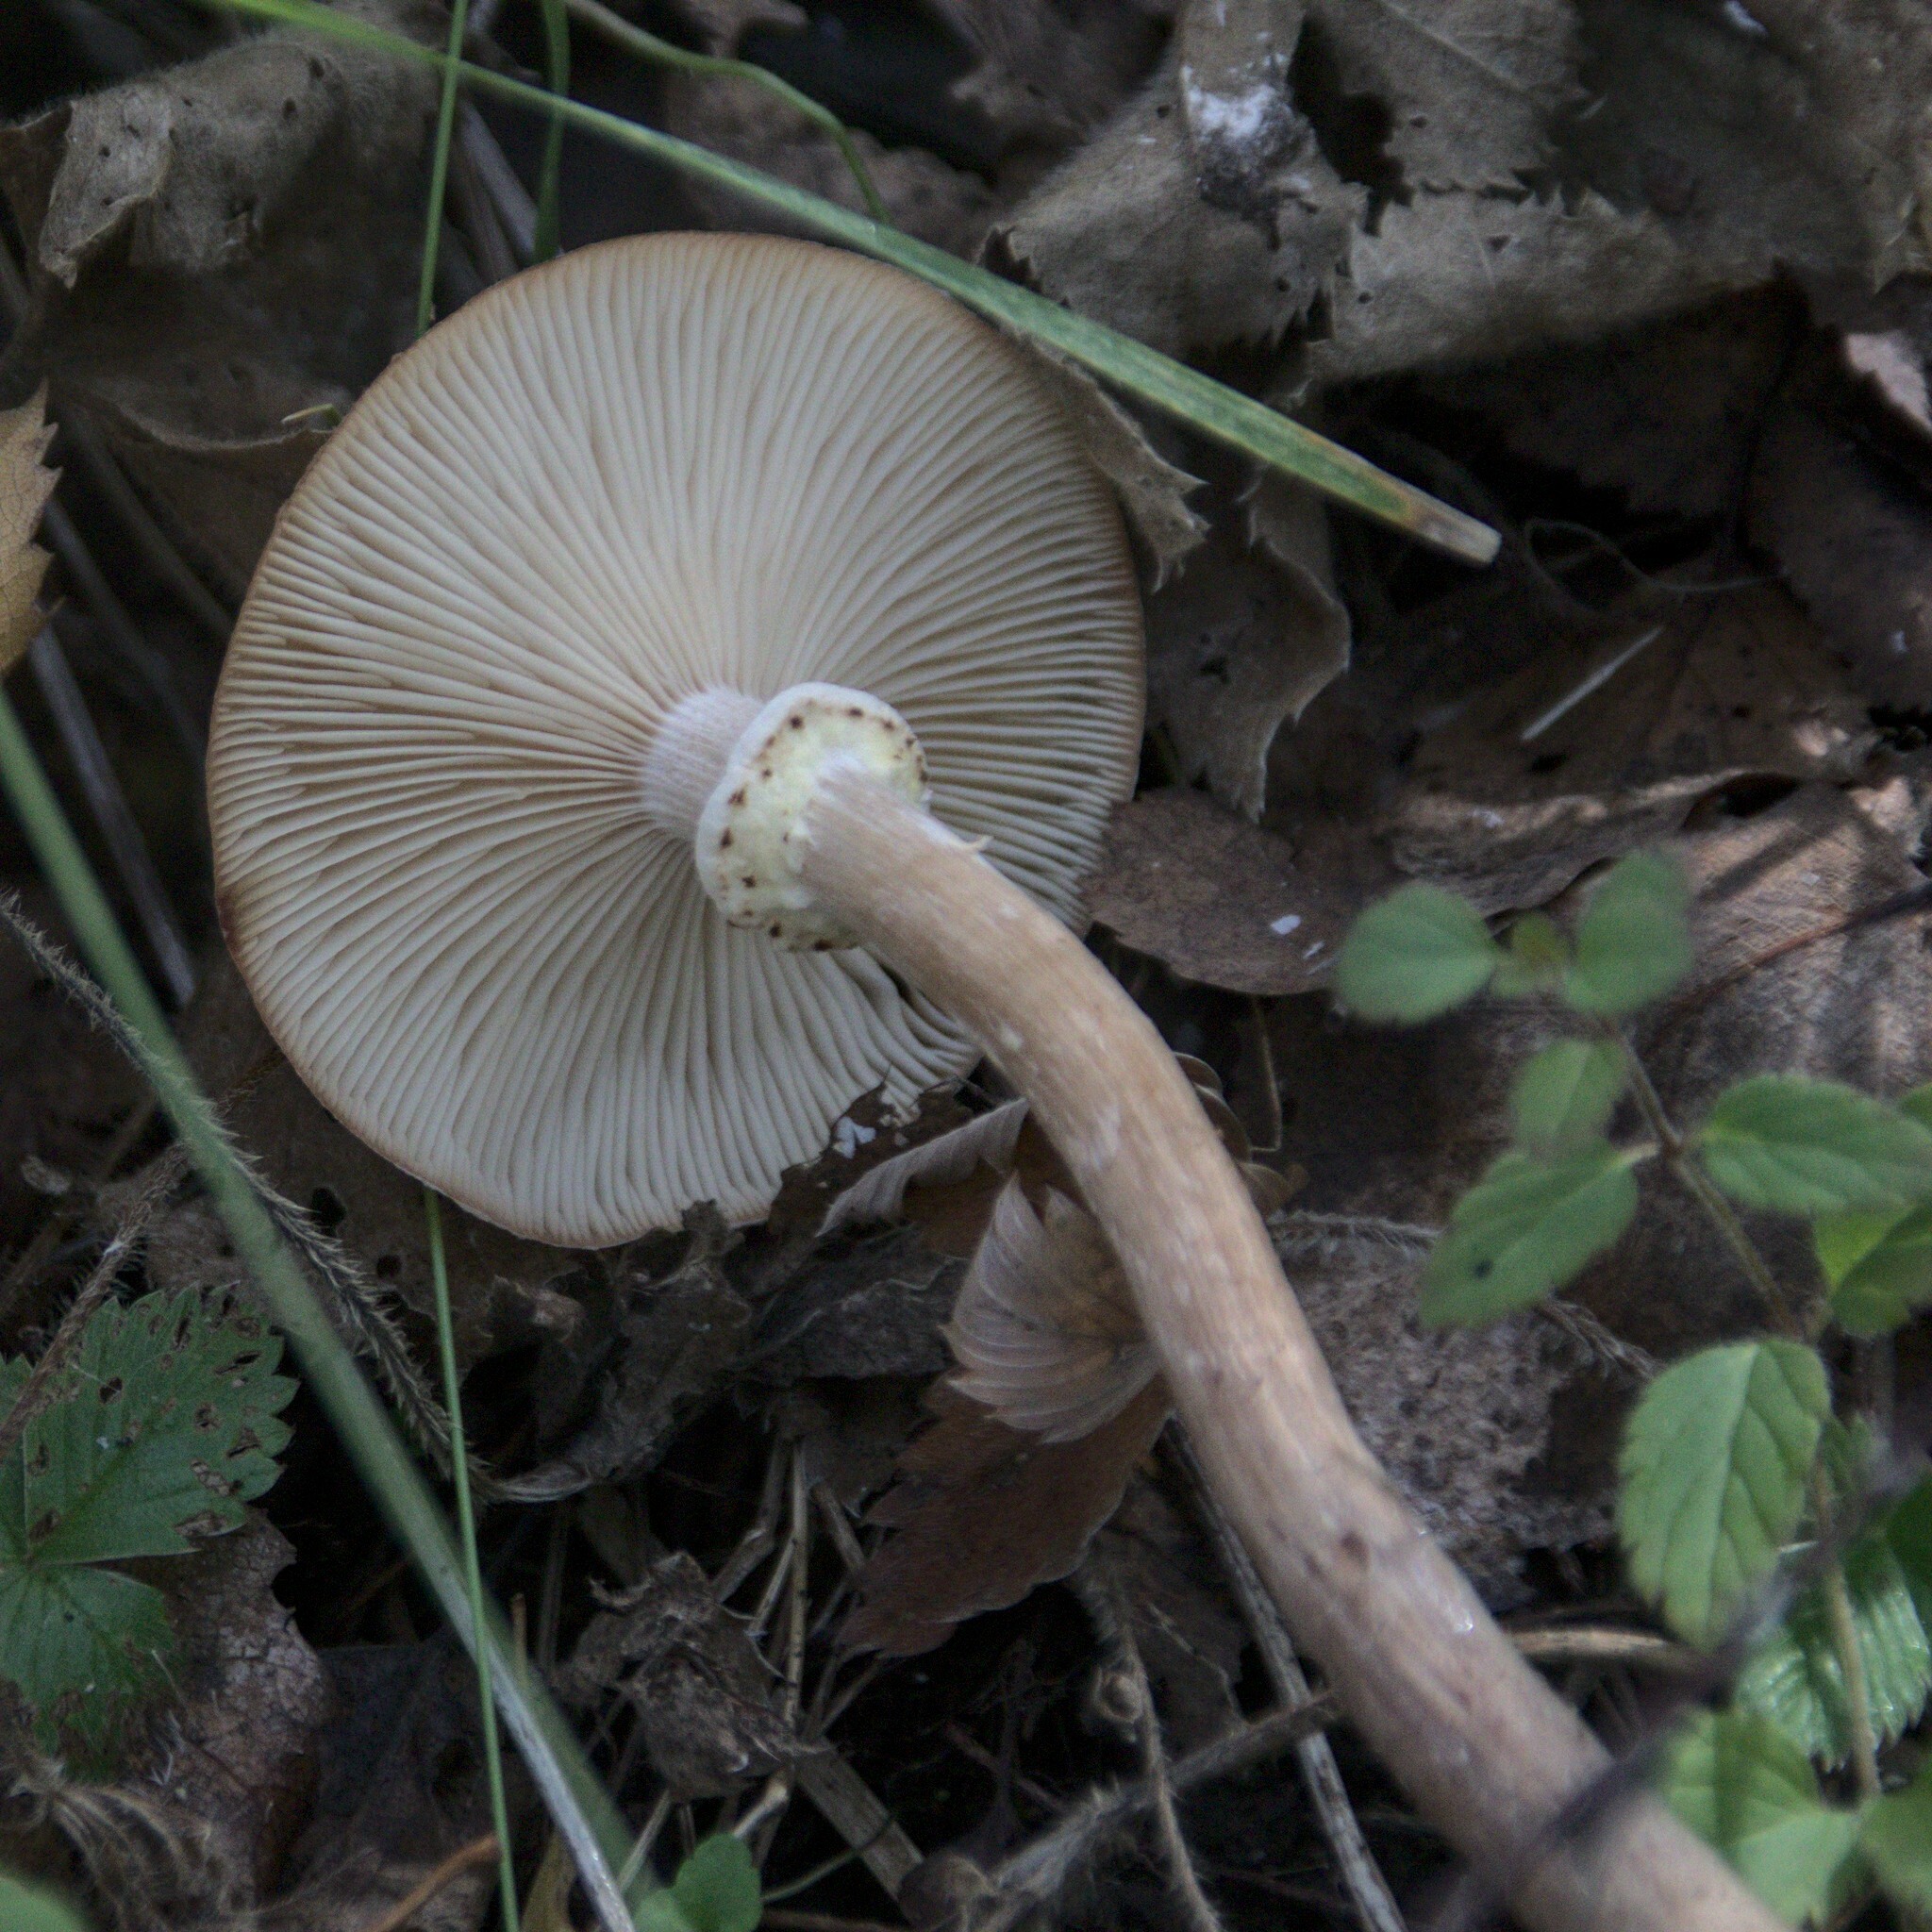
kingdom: Fungi
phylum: Basidiomycota
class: Agaricomycetes
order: Agaricales
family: Physalacriaceae
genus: Armillaria
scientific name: Armillaria borealis
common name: Northern honey fungus
